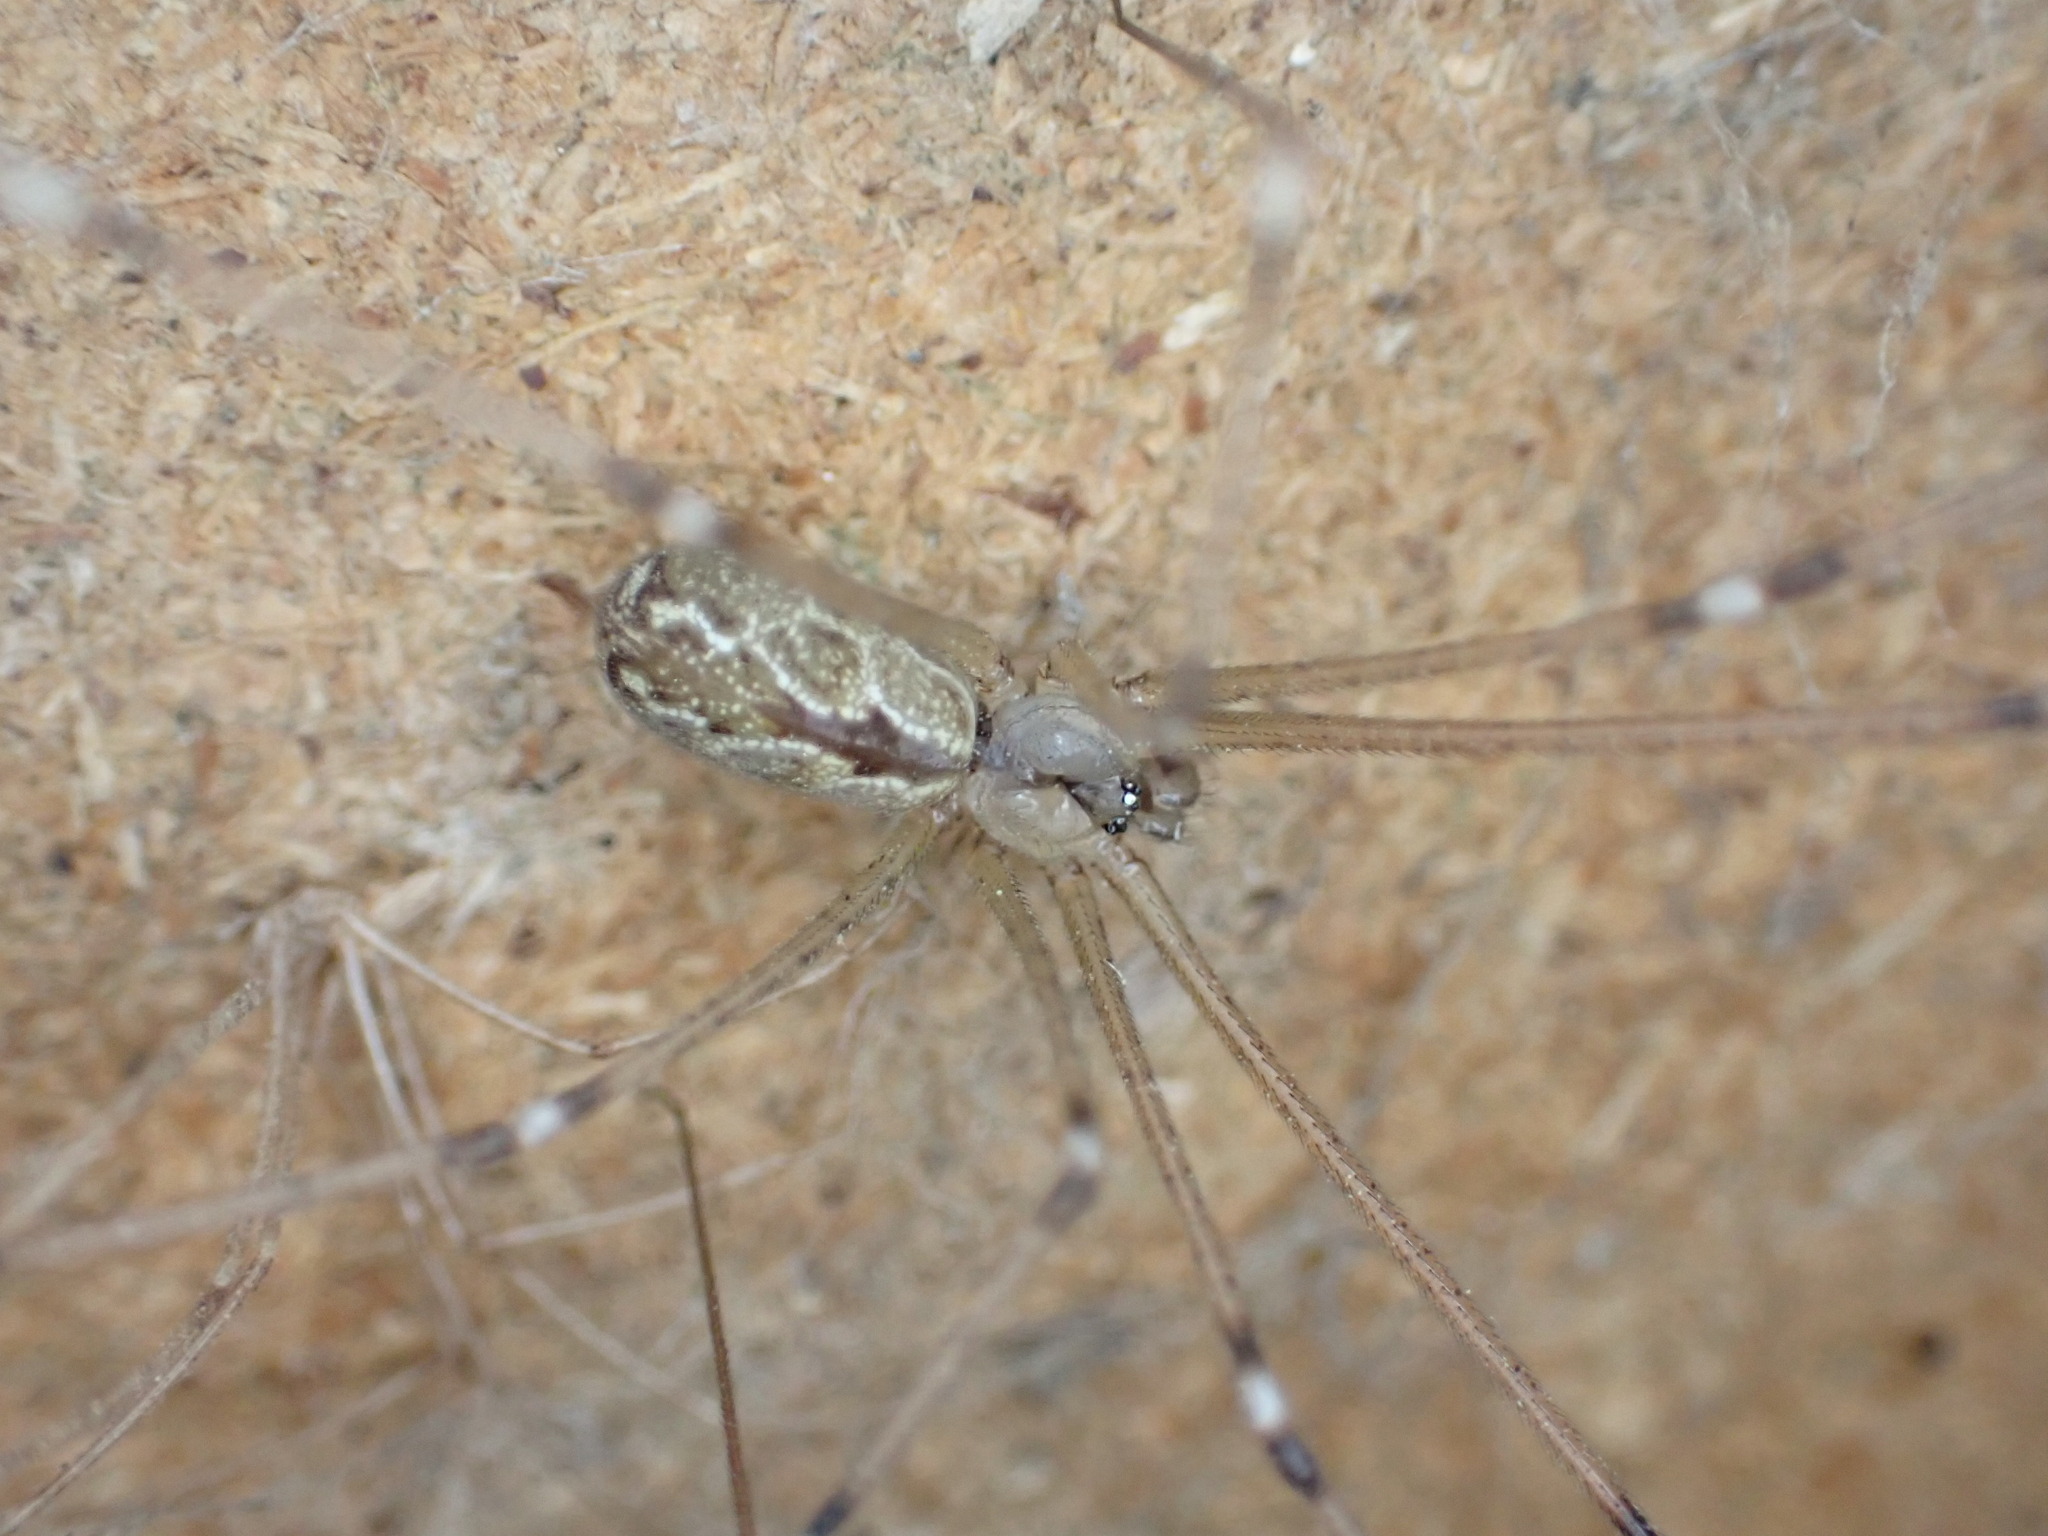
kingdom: Animalia
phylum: Arthropoda
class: Arachnida
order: Araneae
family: Pholcidae
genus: Holocnemus
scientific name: Holocnemus pluchei
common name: Marbled cellar spider
